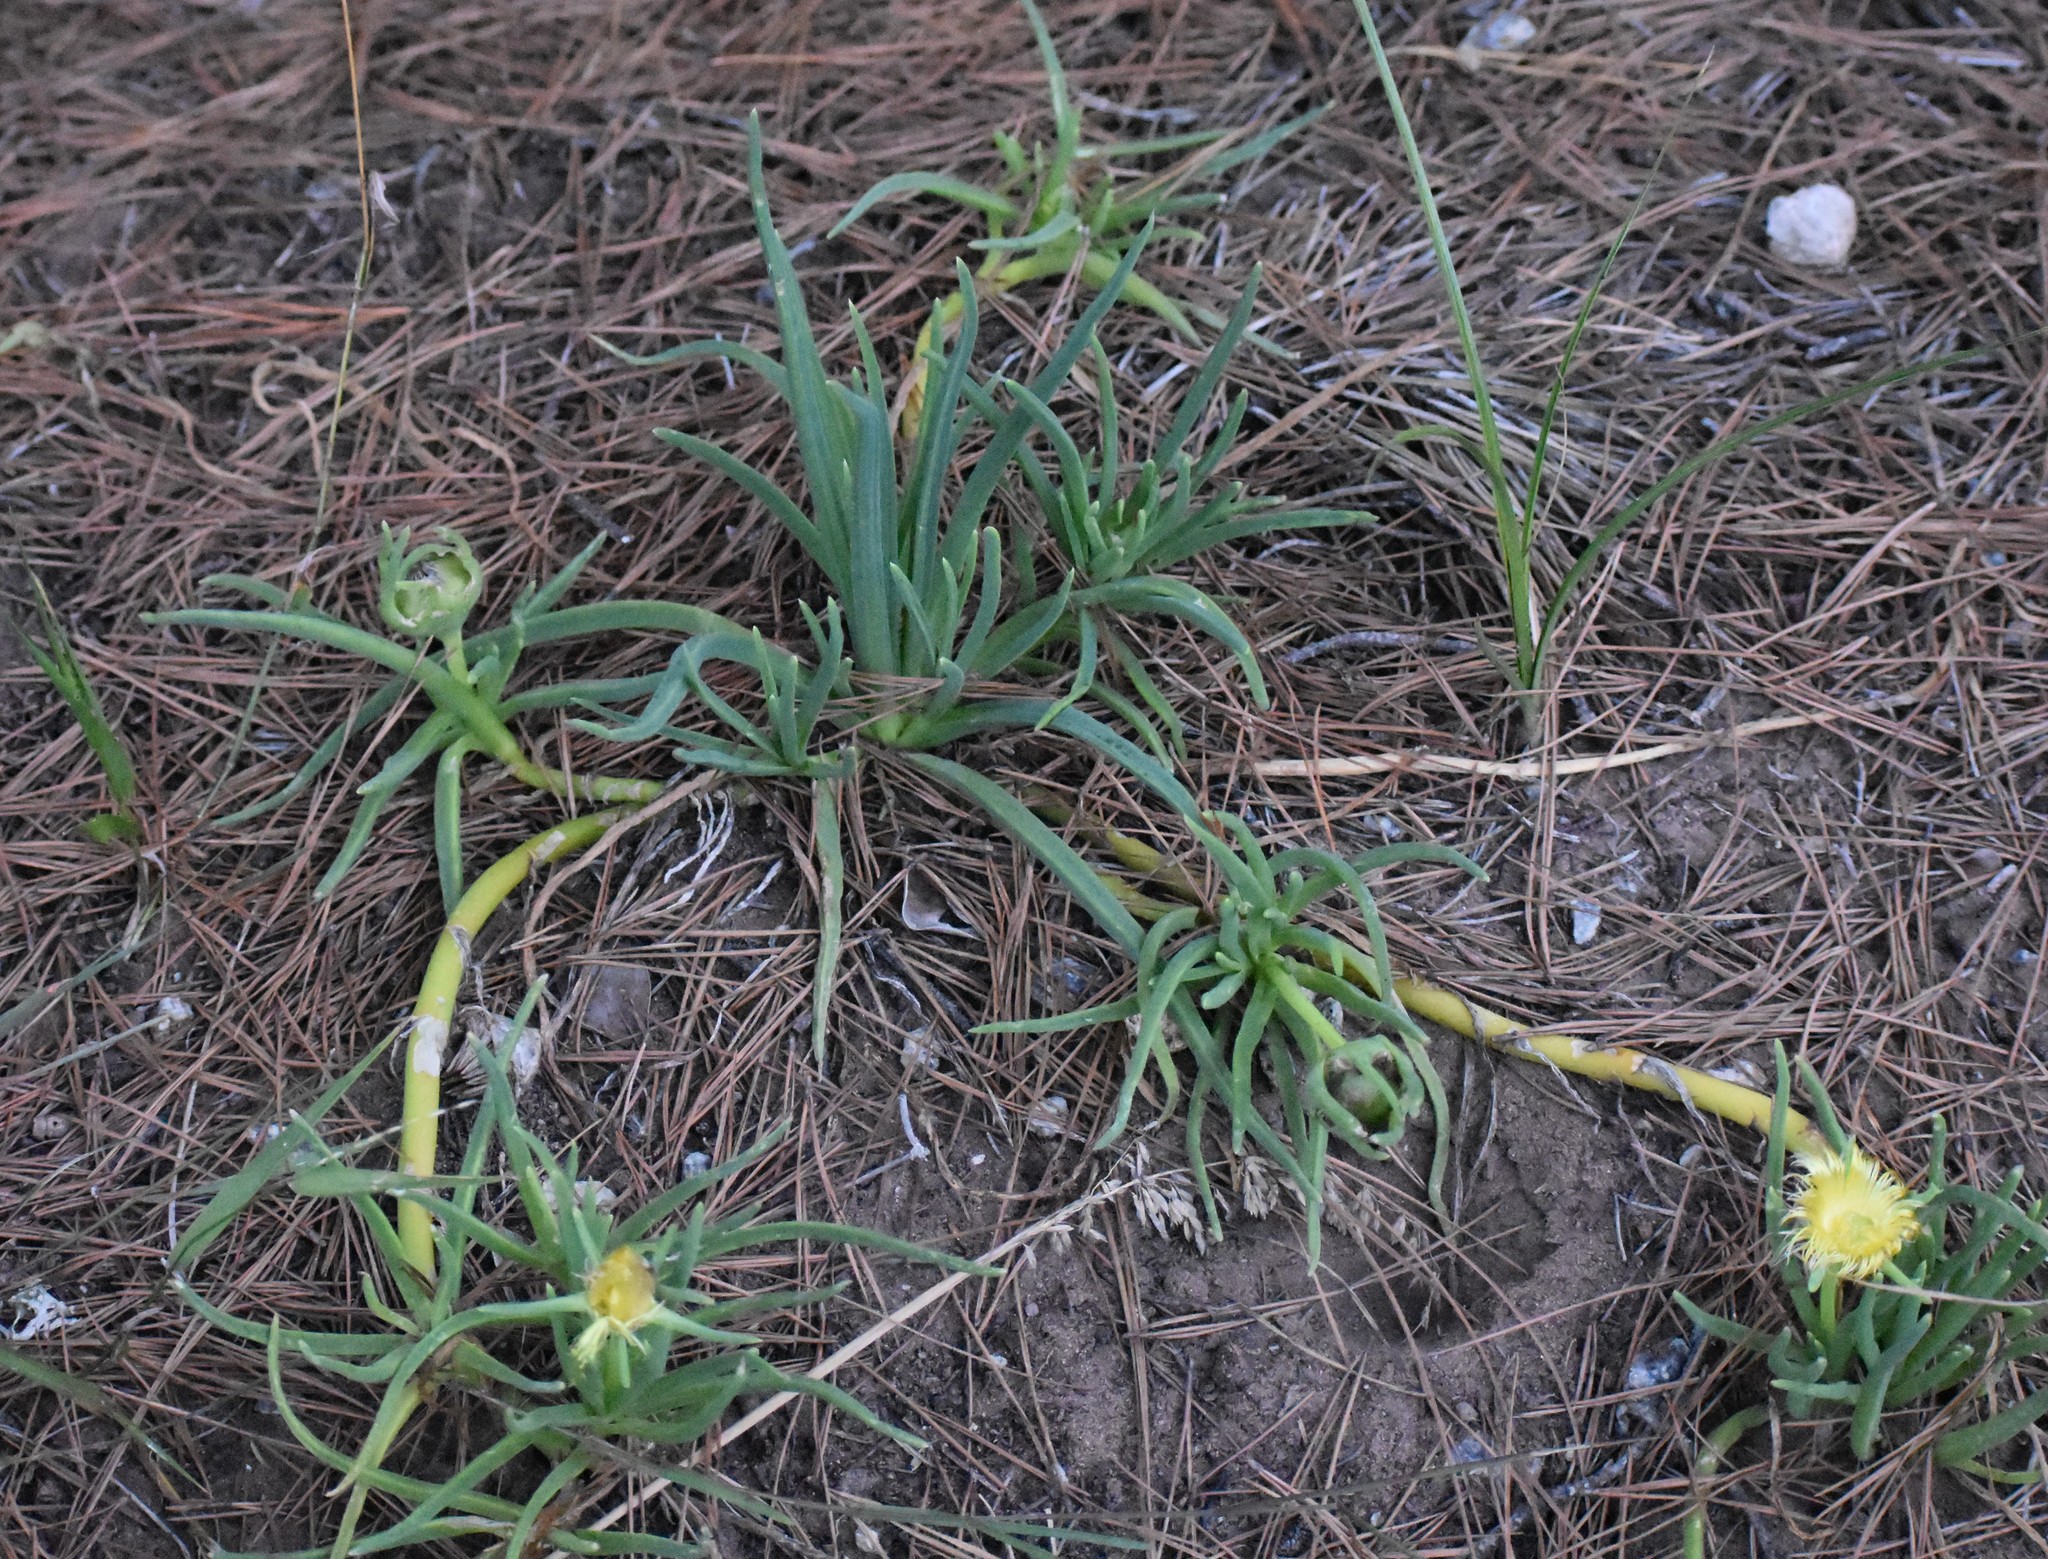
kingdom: Plantae
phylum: Tracheophyta
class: Magnoliopsida
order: Caryophyllales
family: Aizoaceae
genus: Conicosia
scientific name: Conicosia pugioniformis
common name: Narrow-leaved iceplant
